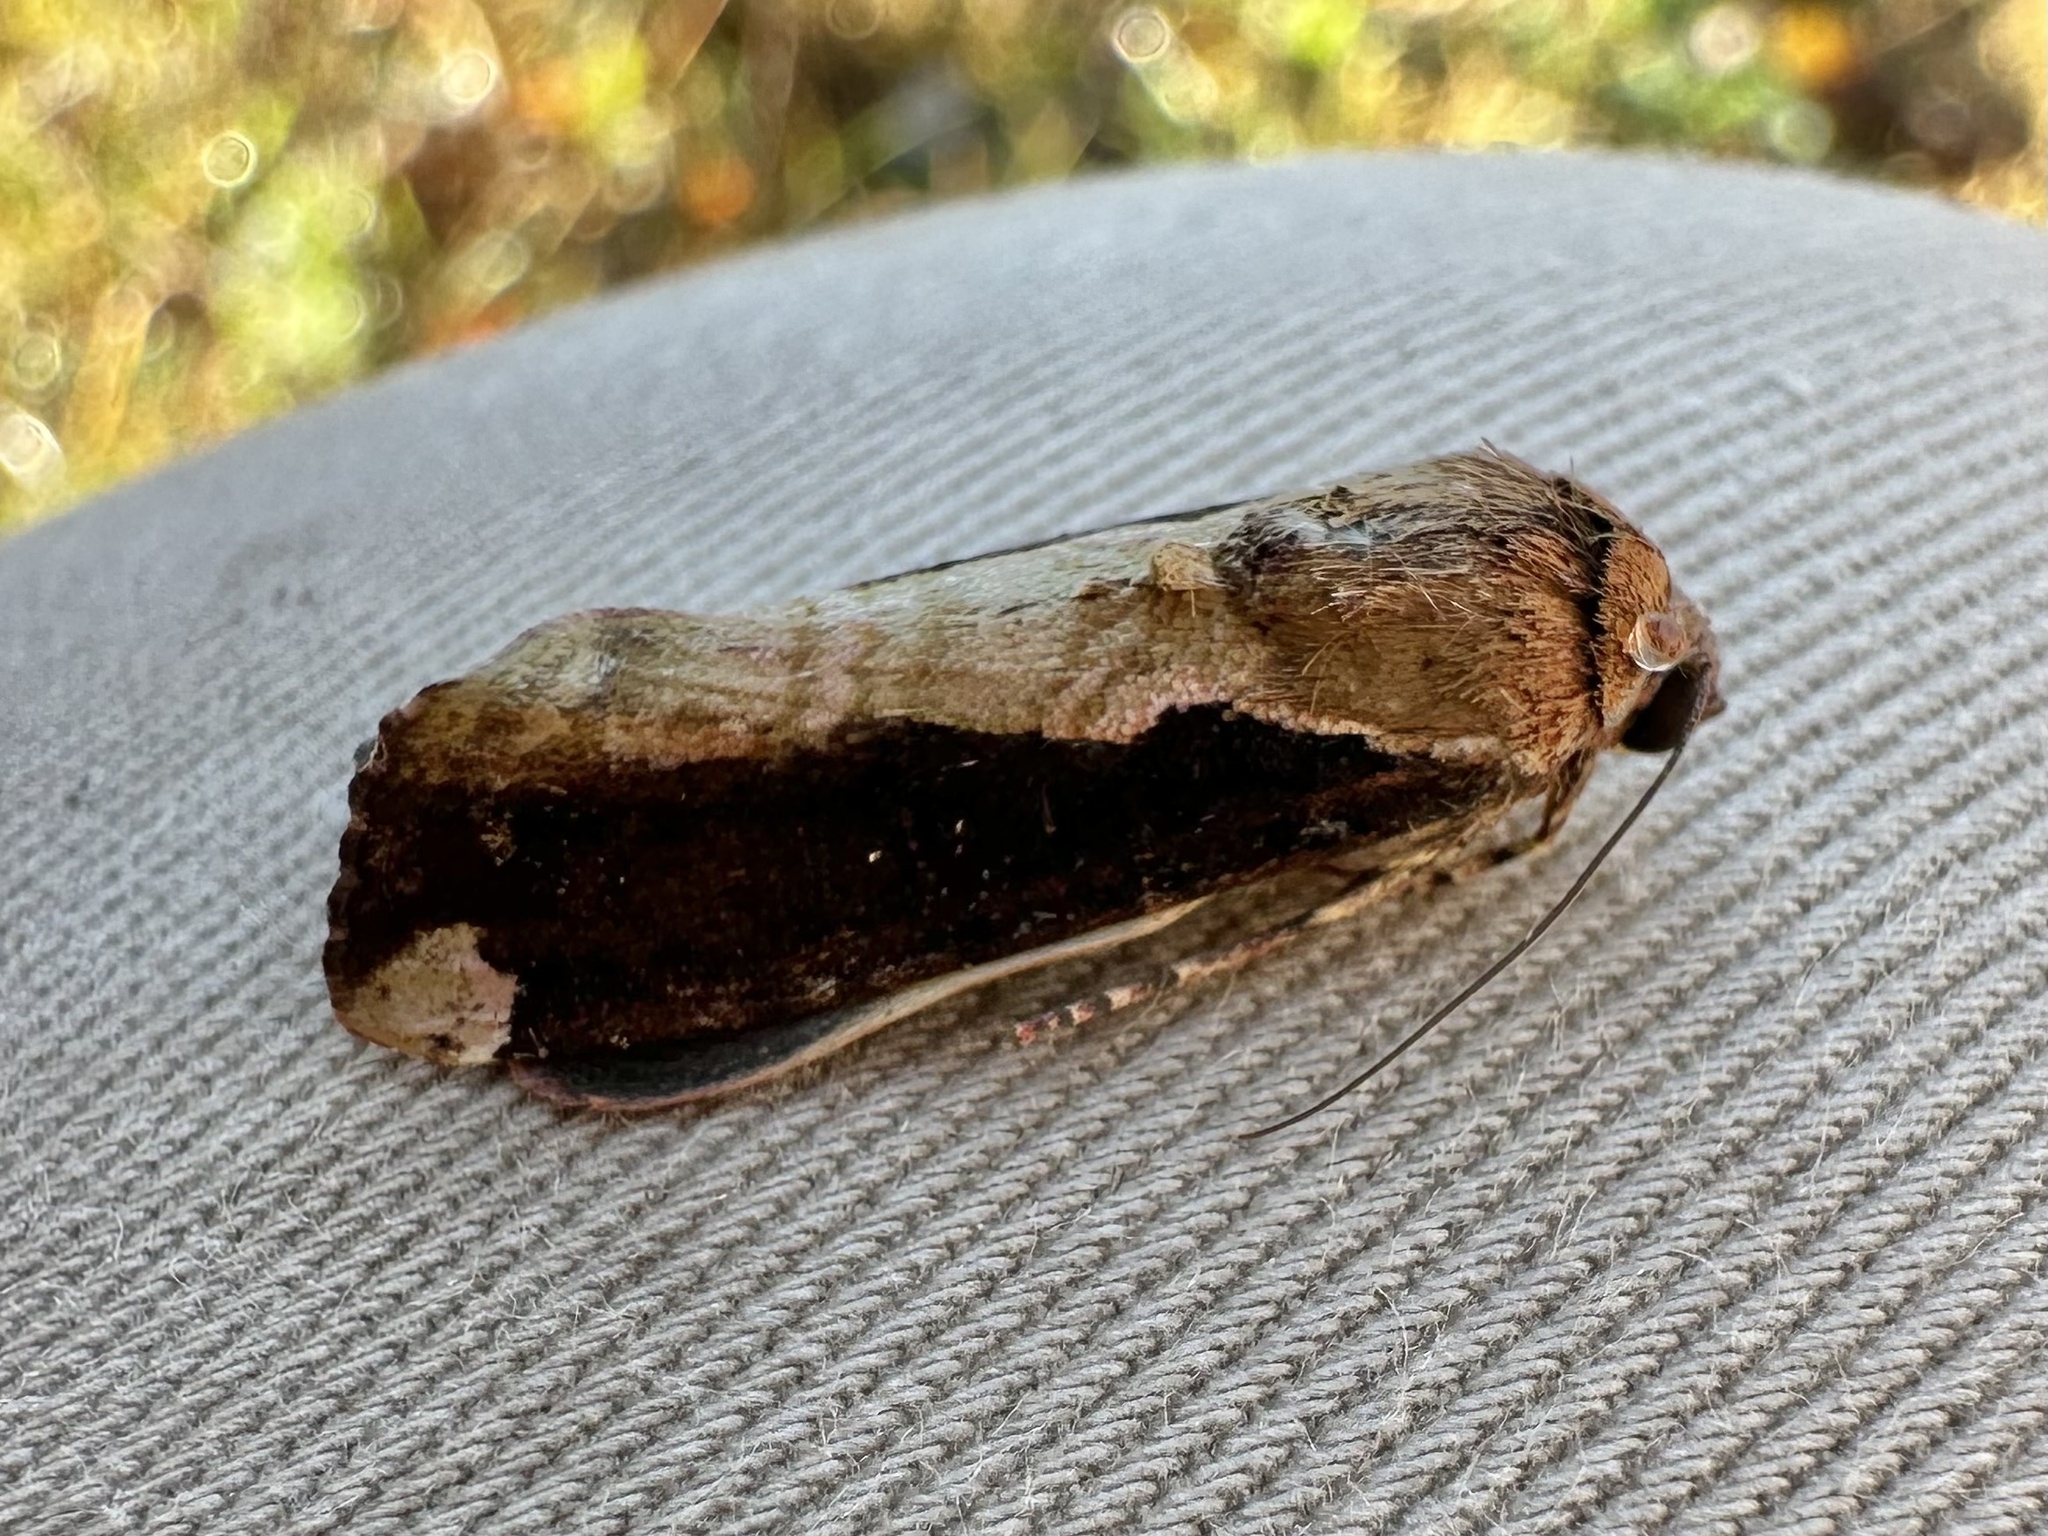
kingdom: Animalia
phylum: Arthropoda
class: Insecta
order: Lepidoptera
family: Noctuidae
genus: Magusa
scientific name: Magusa divaricata
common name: Orb narrow-winged moth
